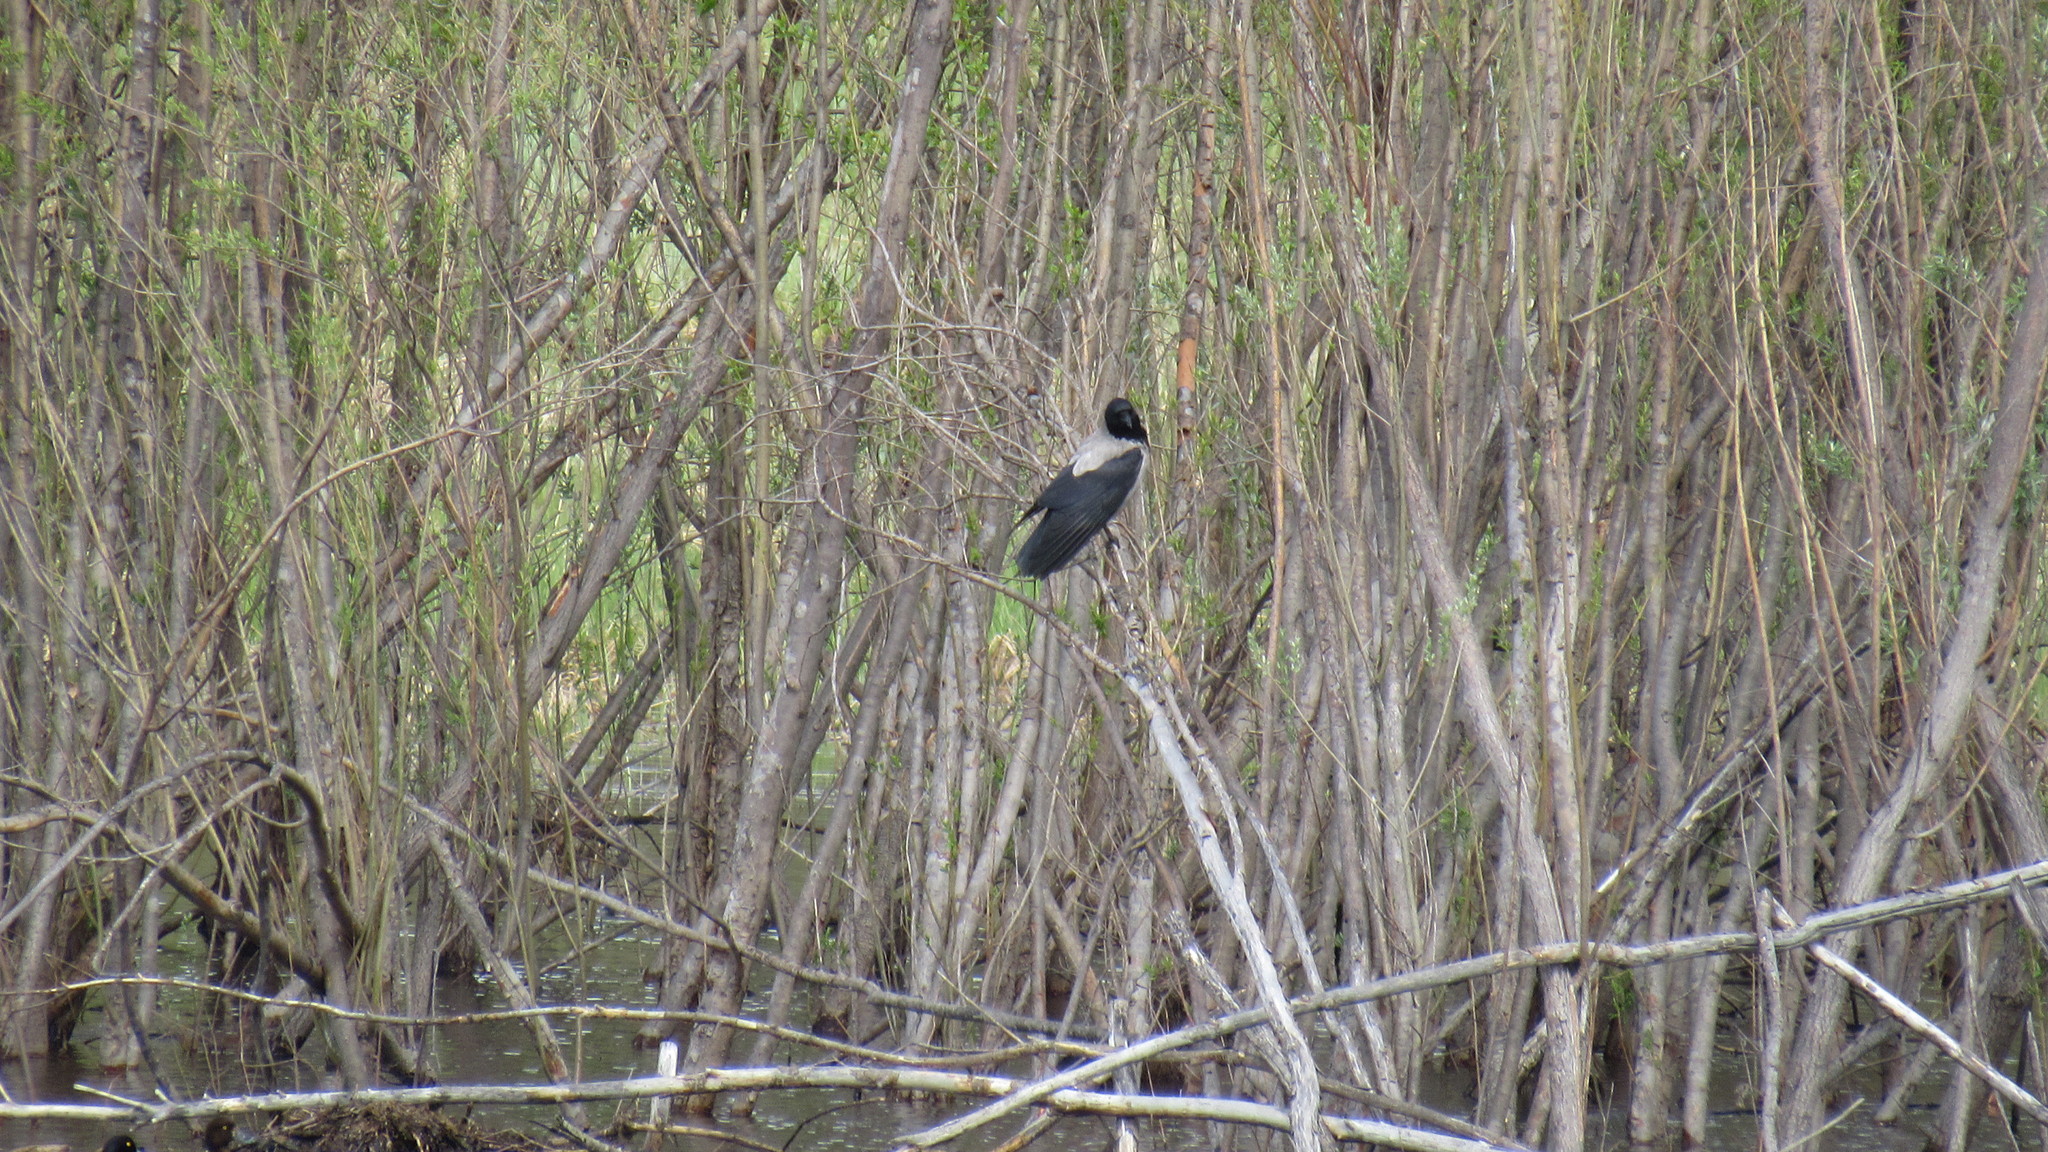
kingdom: Animalia
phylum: Chordata
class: Aves
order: Passeriformes
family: Corvidae
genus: Corvus
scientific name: Corvus cornix
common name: Hooded crow
